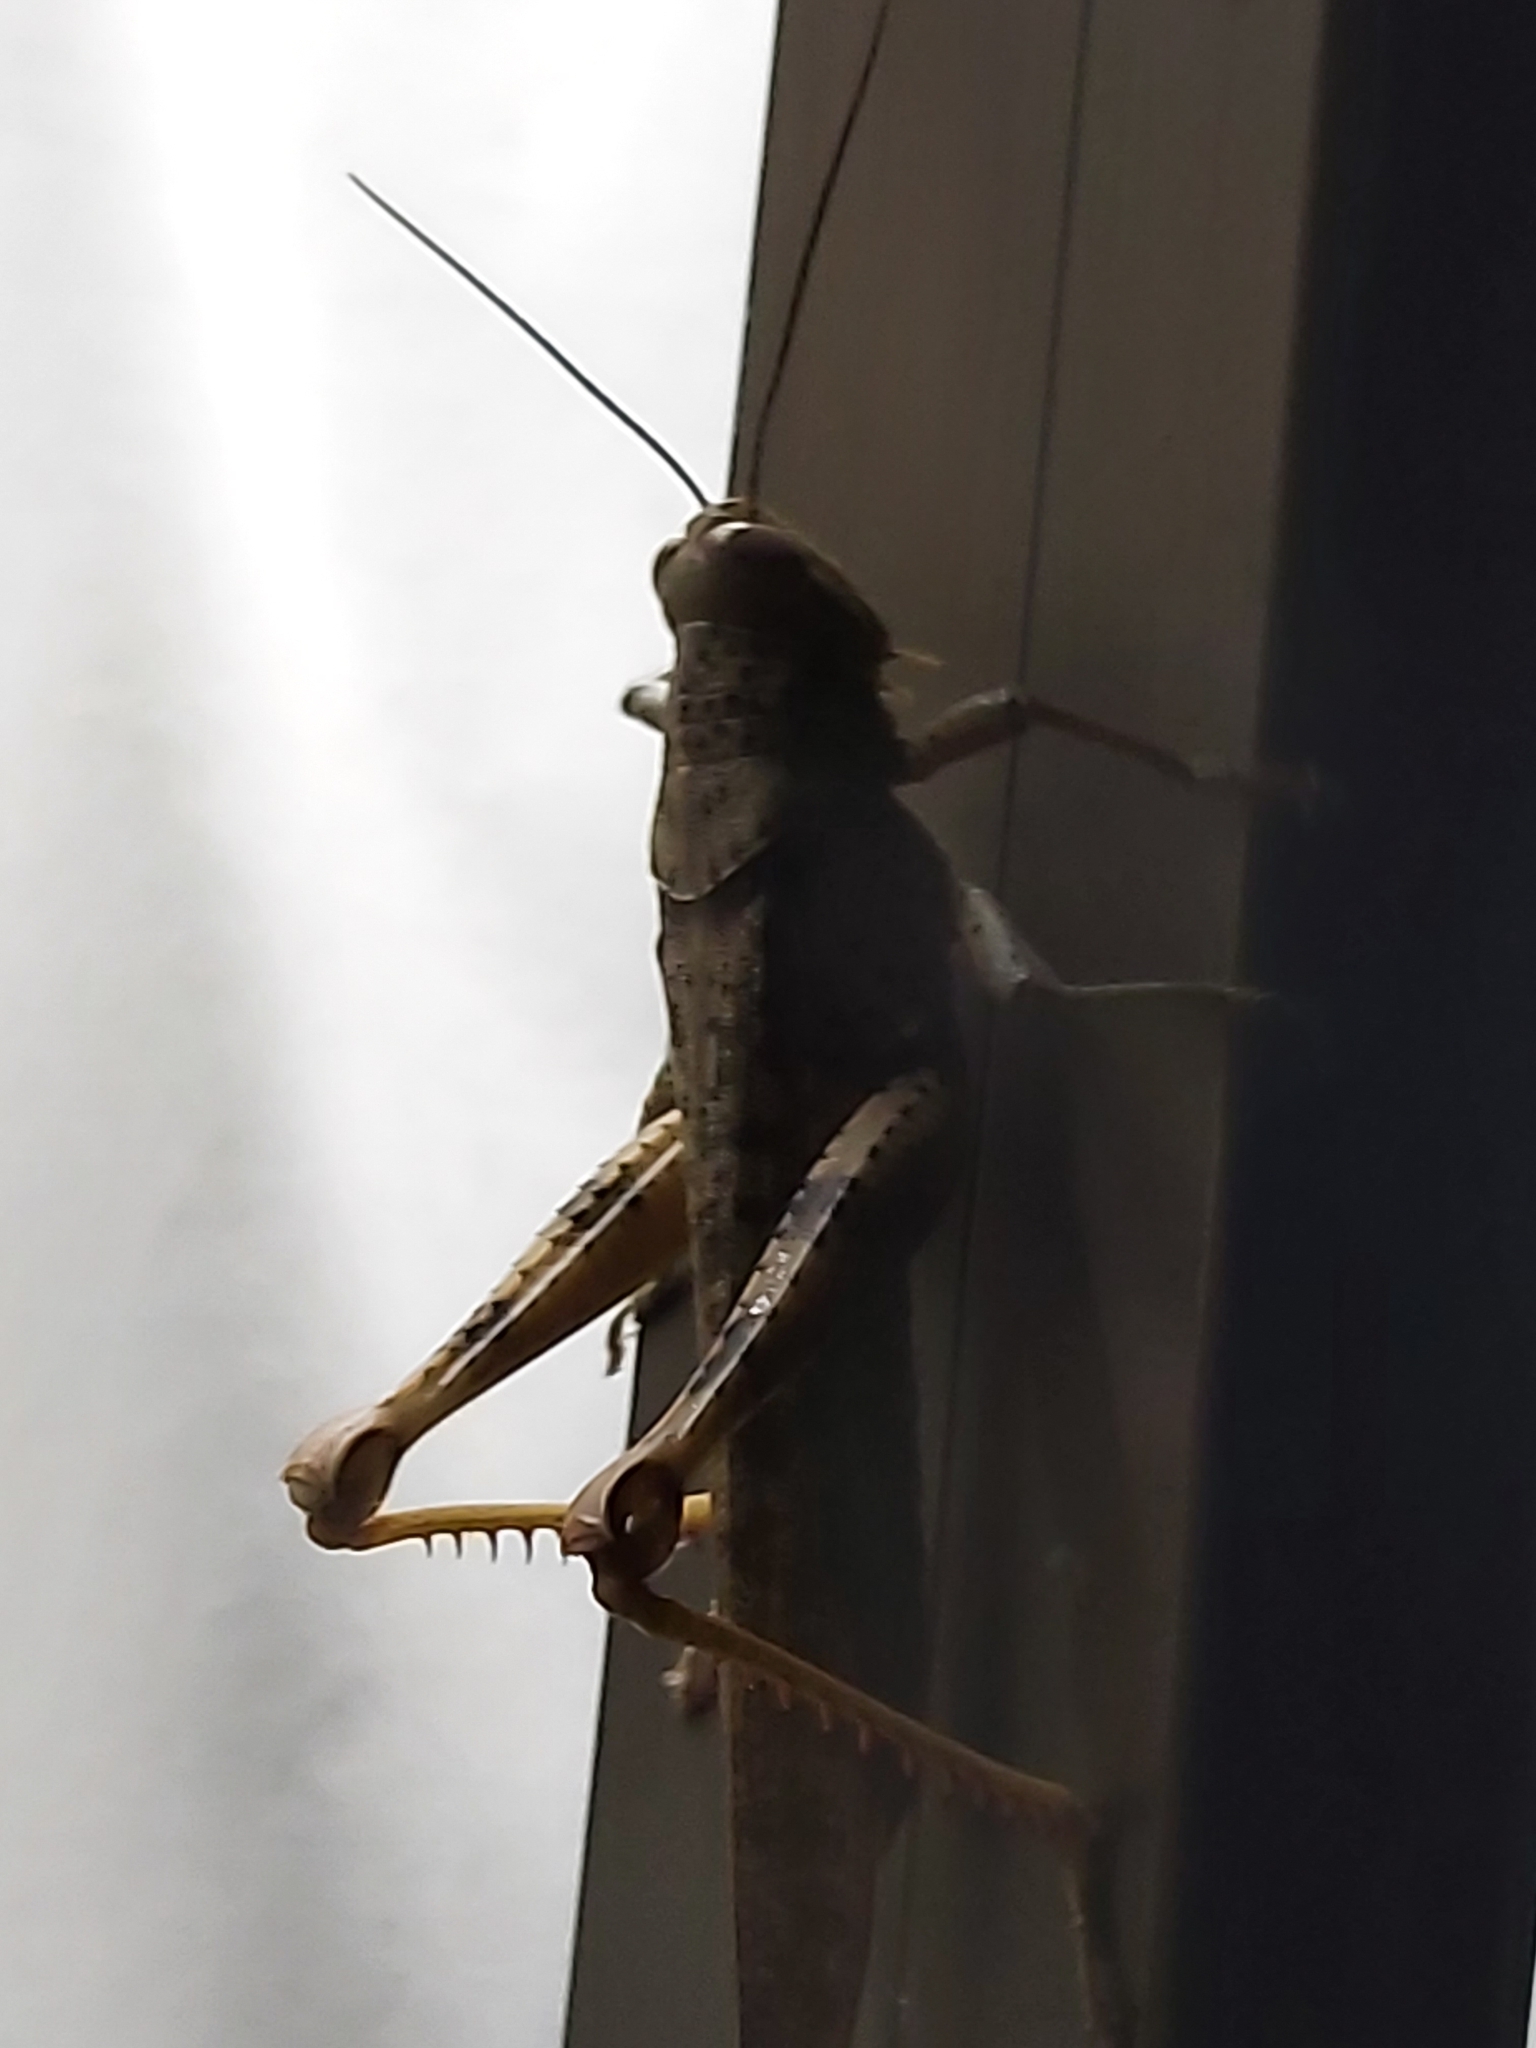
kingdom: Animalia
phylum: Arthropoda
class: Insecta
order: Orthoptera
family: Acrididae
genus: Valanga
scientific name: Valanga irregularis
